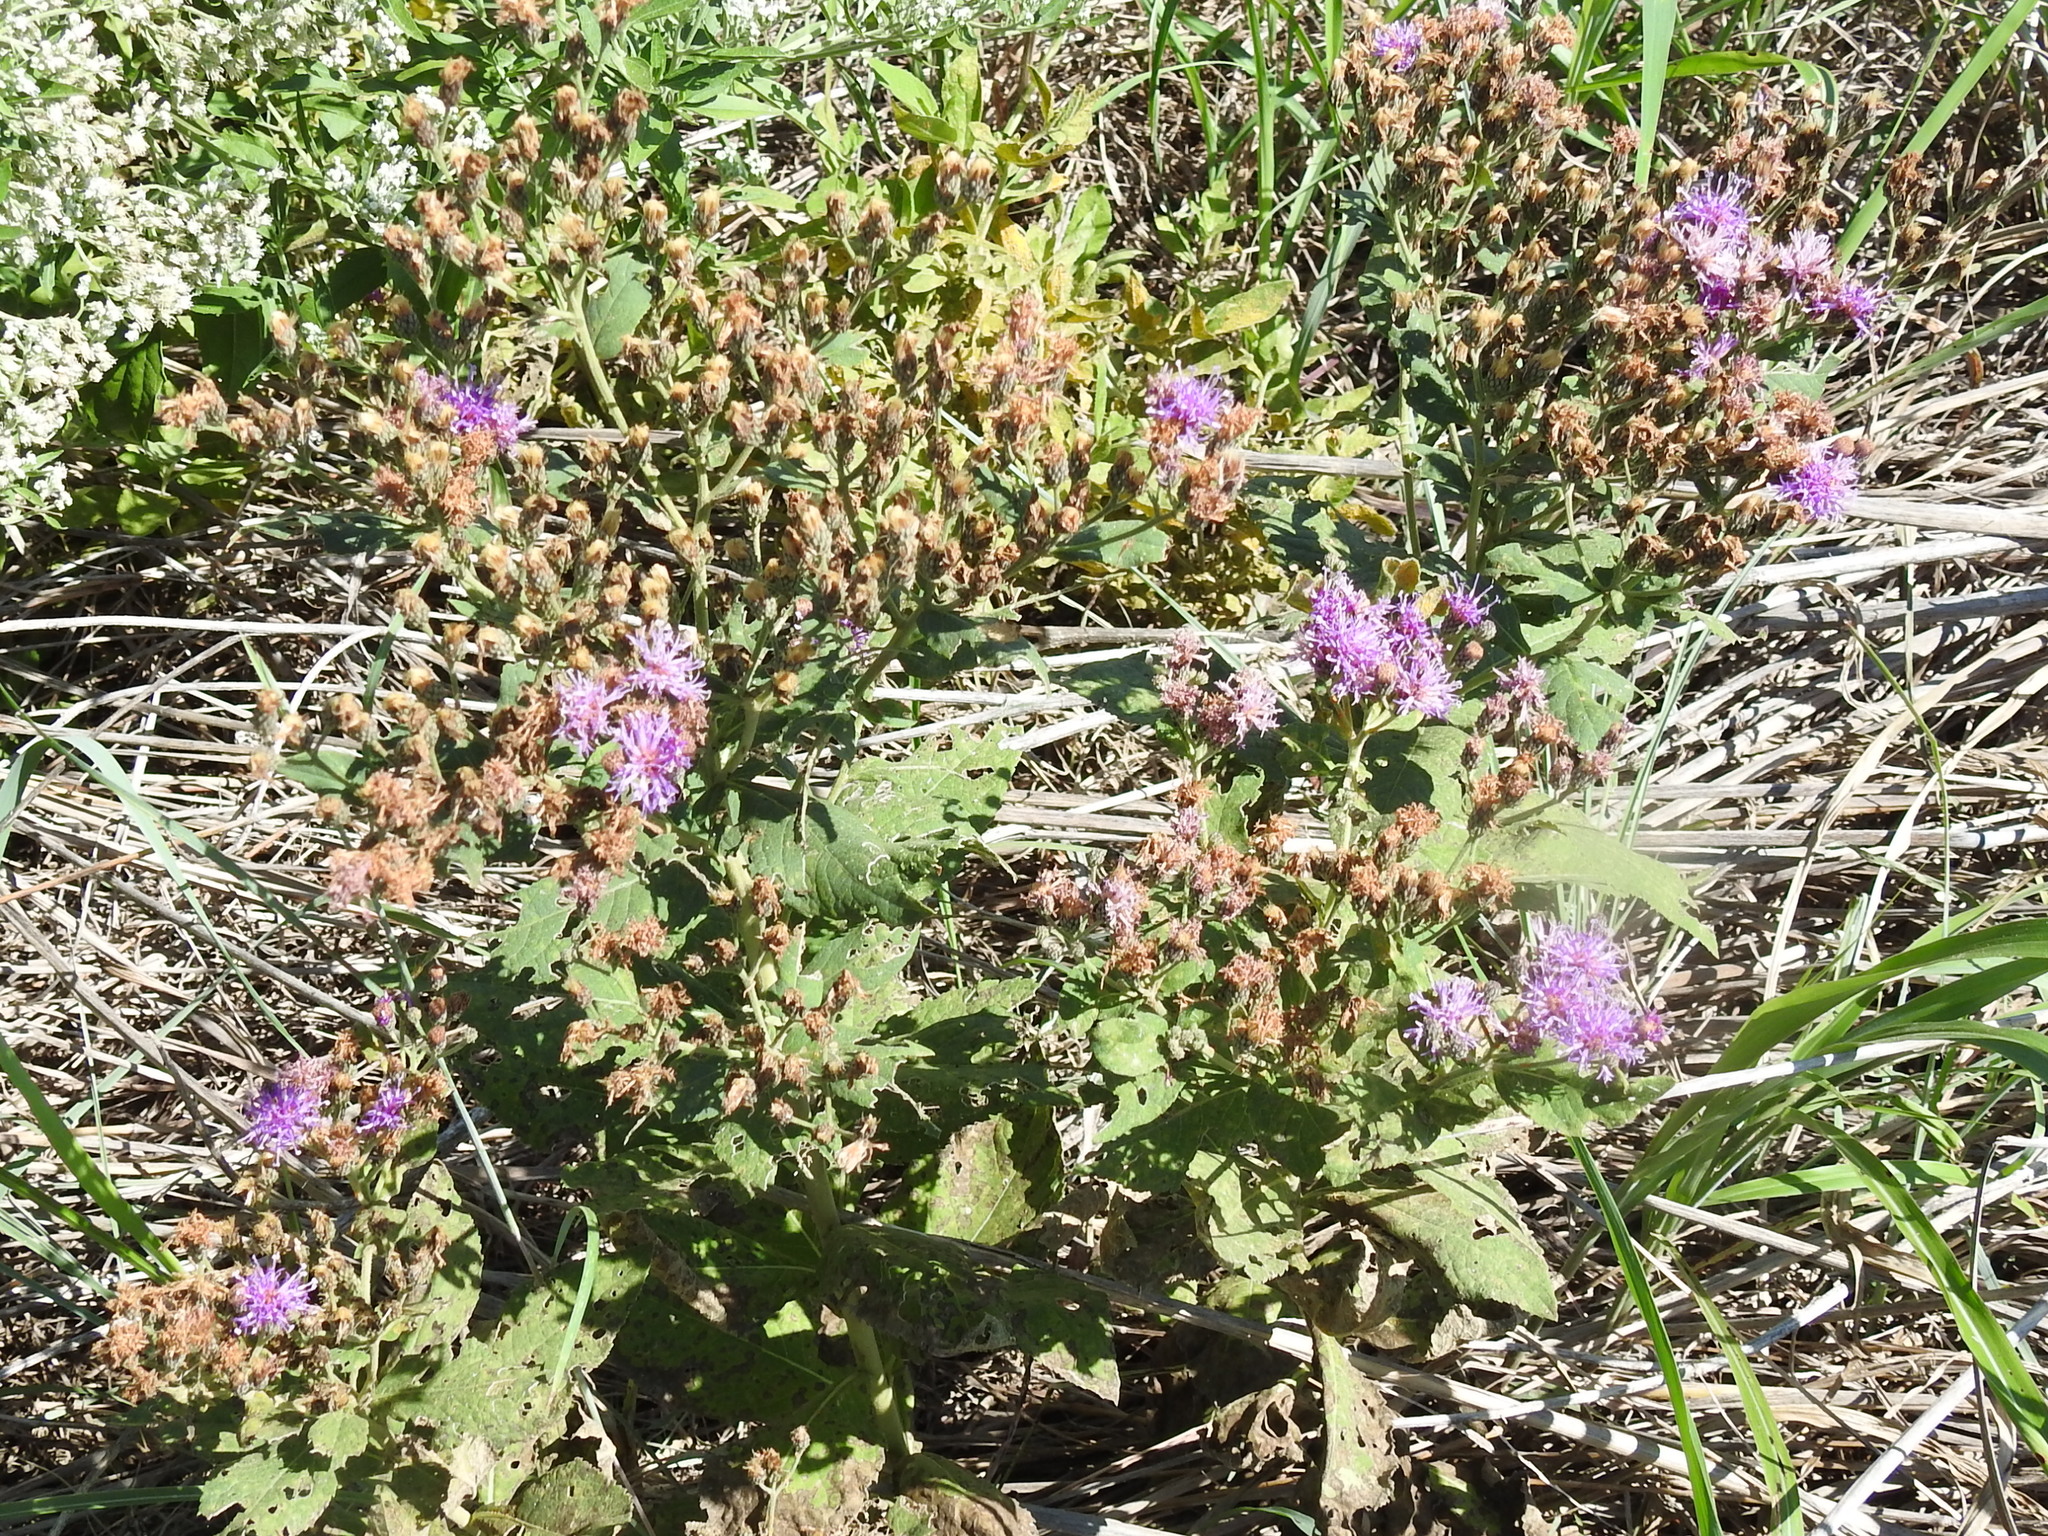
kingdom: Plantae
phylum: Tracheophyta
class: Magnoliopsida
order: Asterales
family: Asteraceae
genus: Vernonia
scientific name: Vernonia baldwinii
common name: Western ironweed
